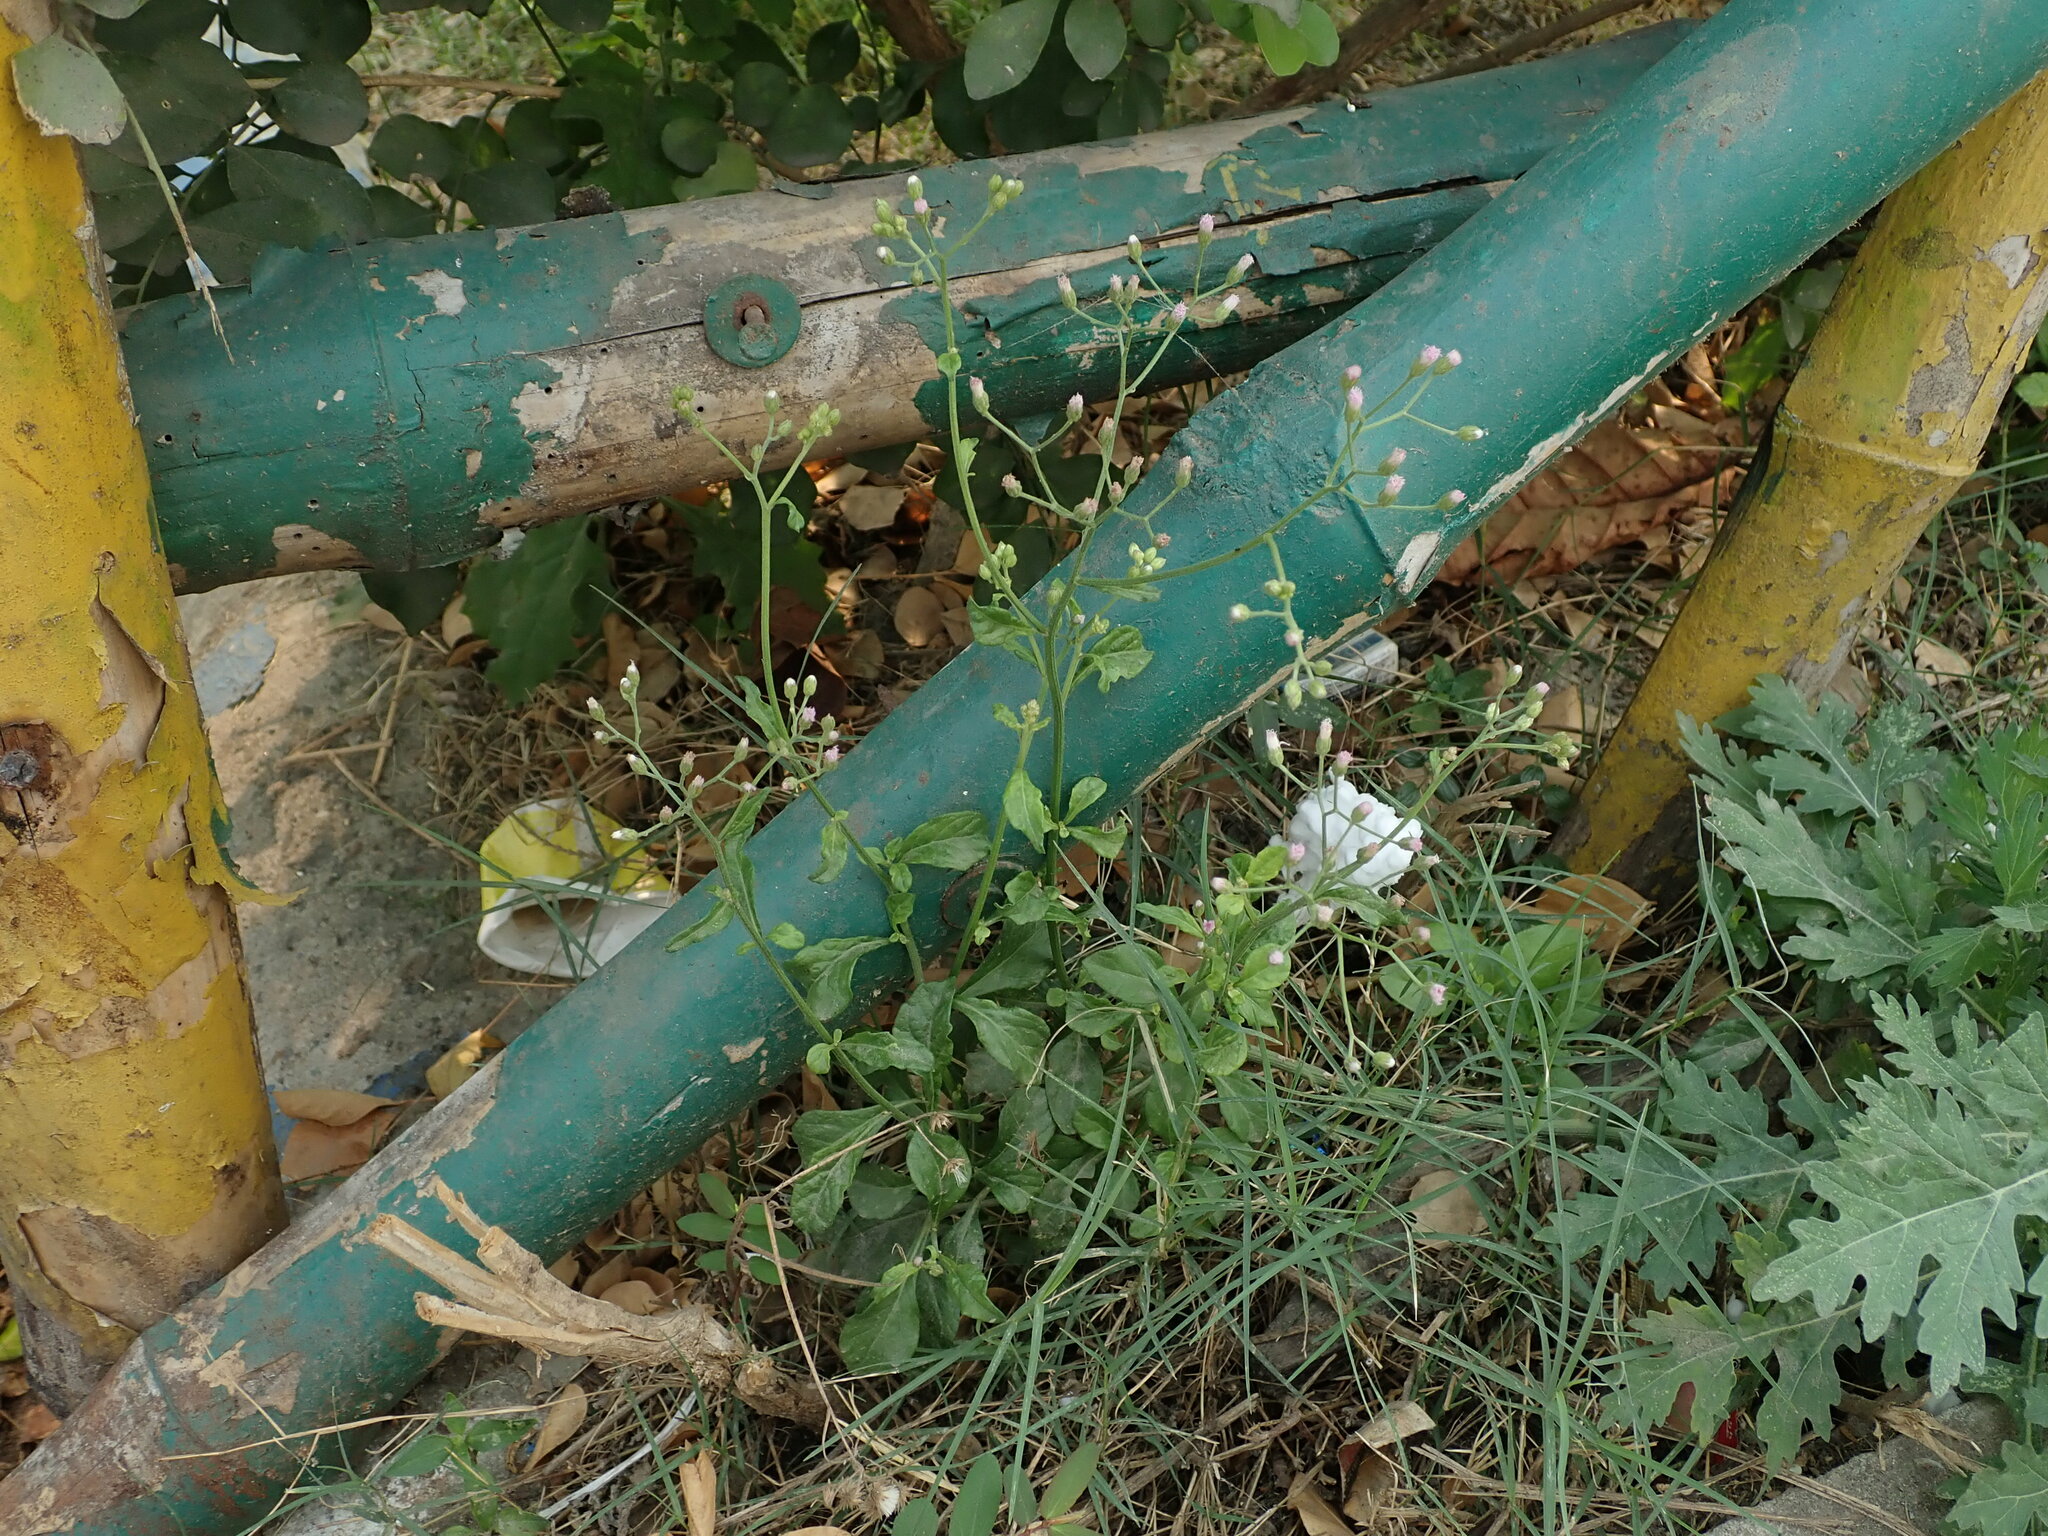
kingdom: Plantae
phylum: Tracheophyta
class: Magnoliopsida
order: Asterales
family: Asteraceae
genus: Cyanthillium
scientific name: Cyanthillium cinereum
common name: Little ironweed
